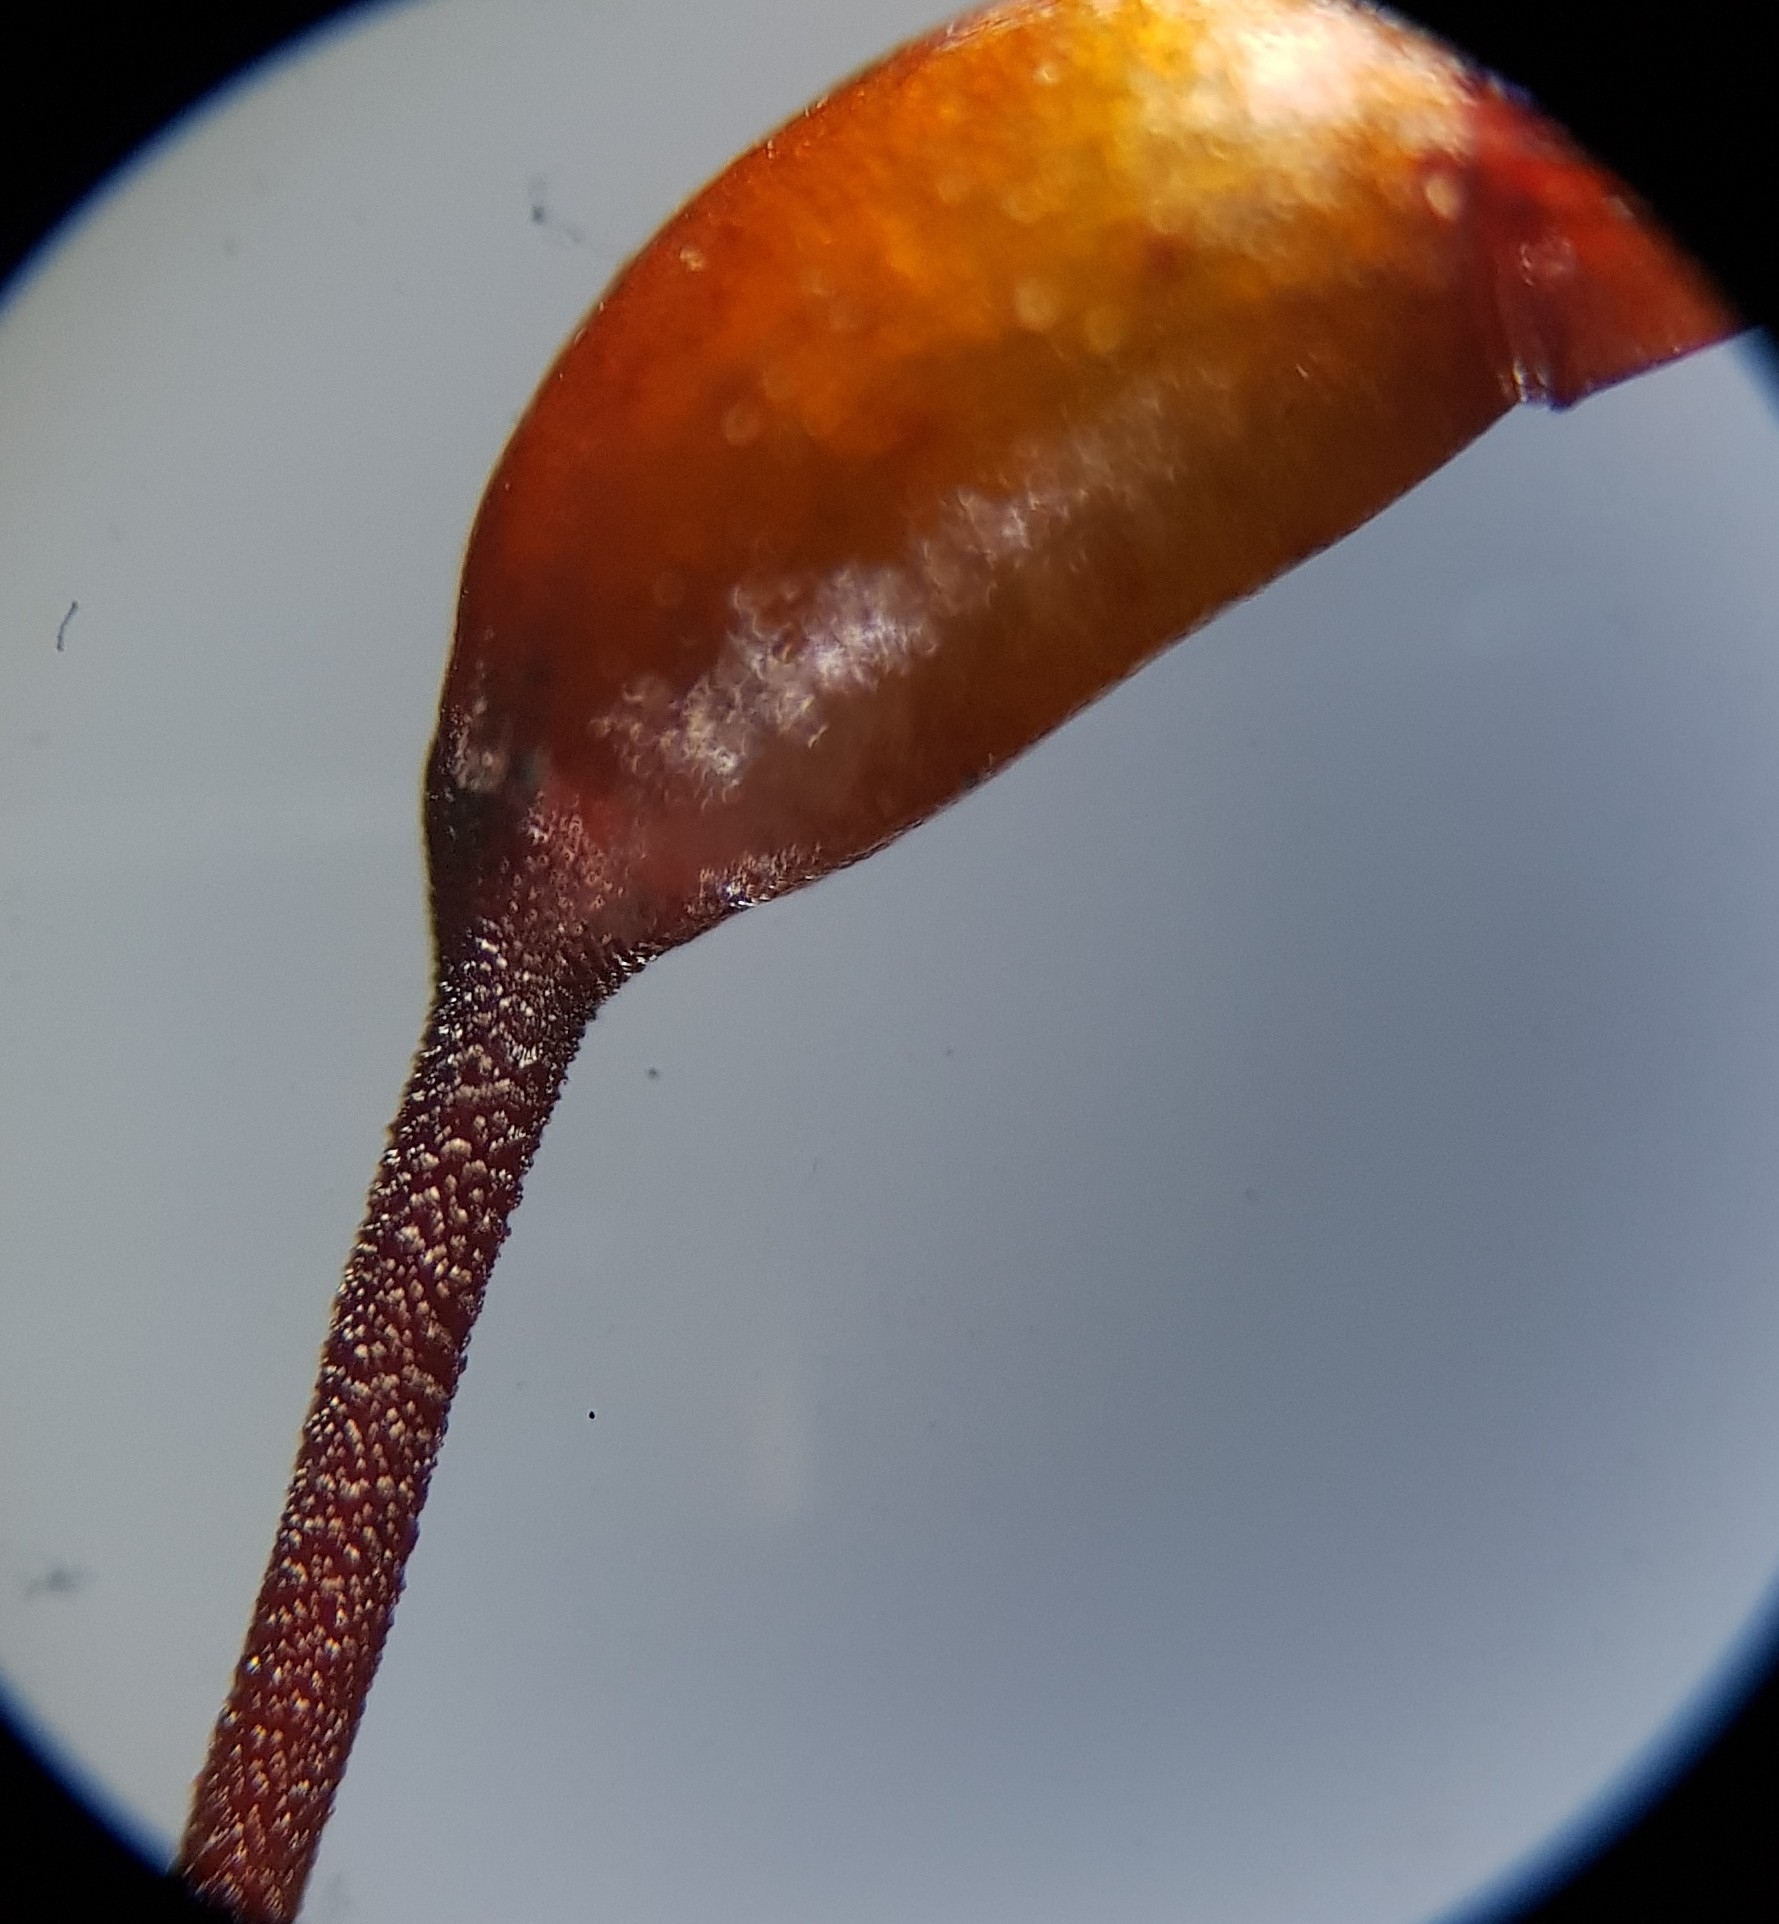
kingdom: Plantae
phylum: Bryophyta
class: Bryopsida
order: Hypnales
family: Brachytheciaceae
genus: Brachythecium
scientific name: Brachythecium rutabulum
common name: Rough-stalked feather-moss
